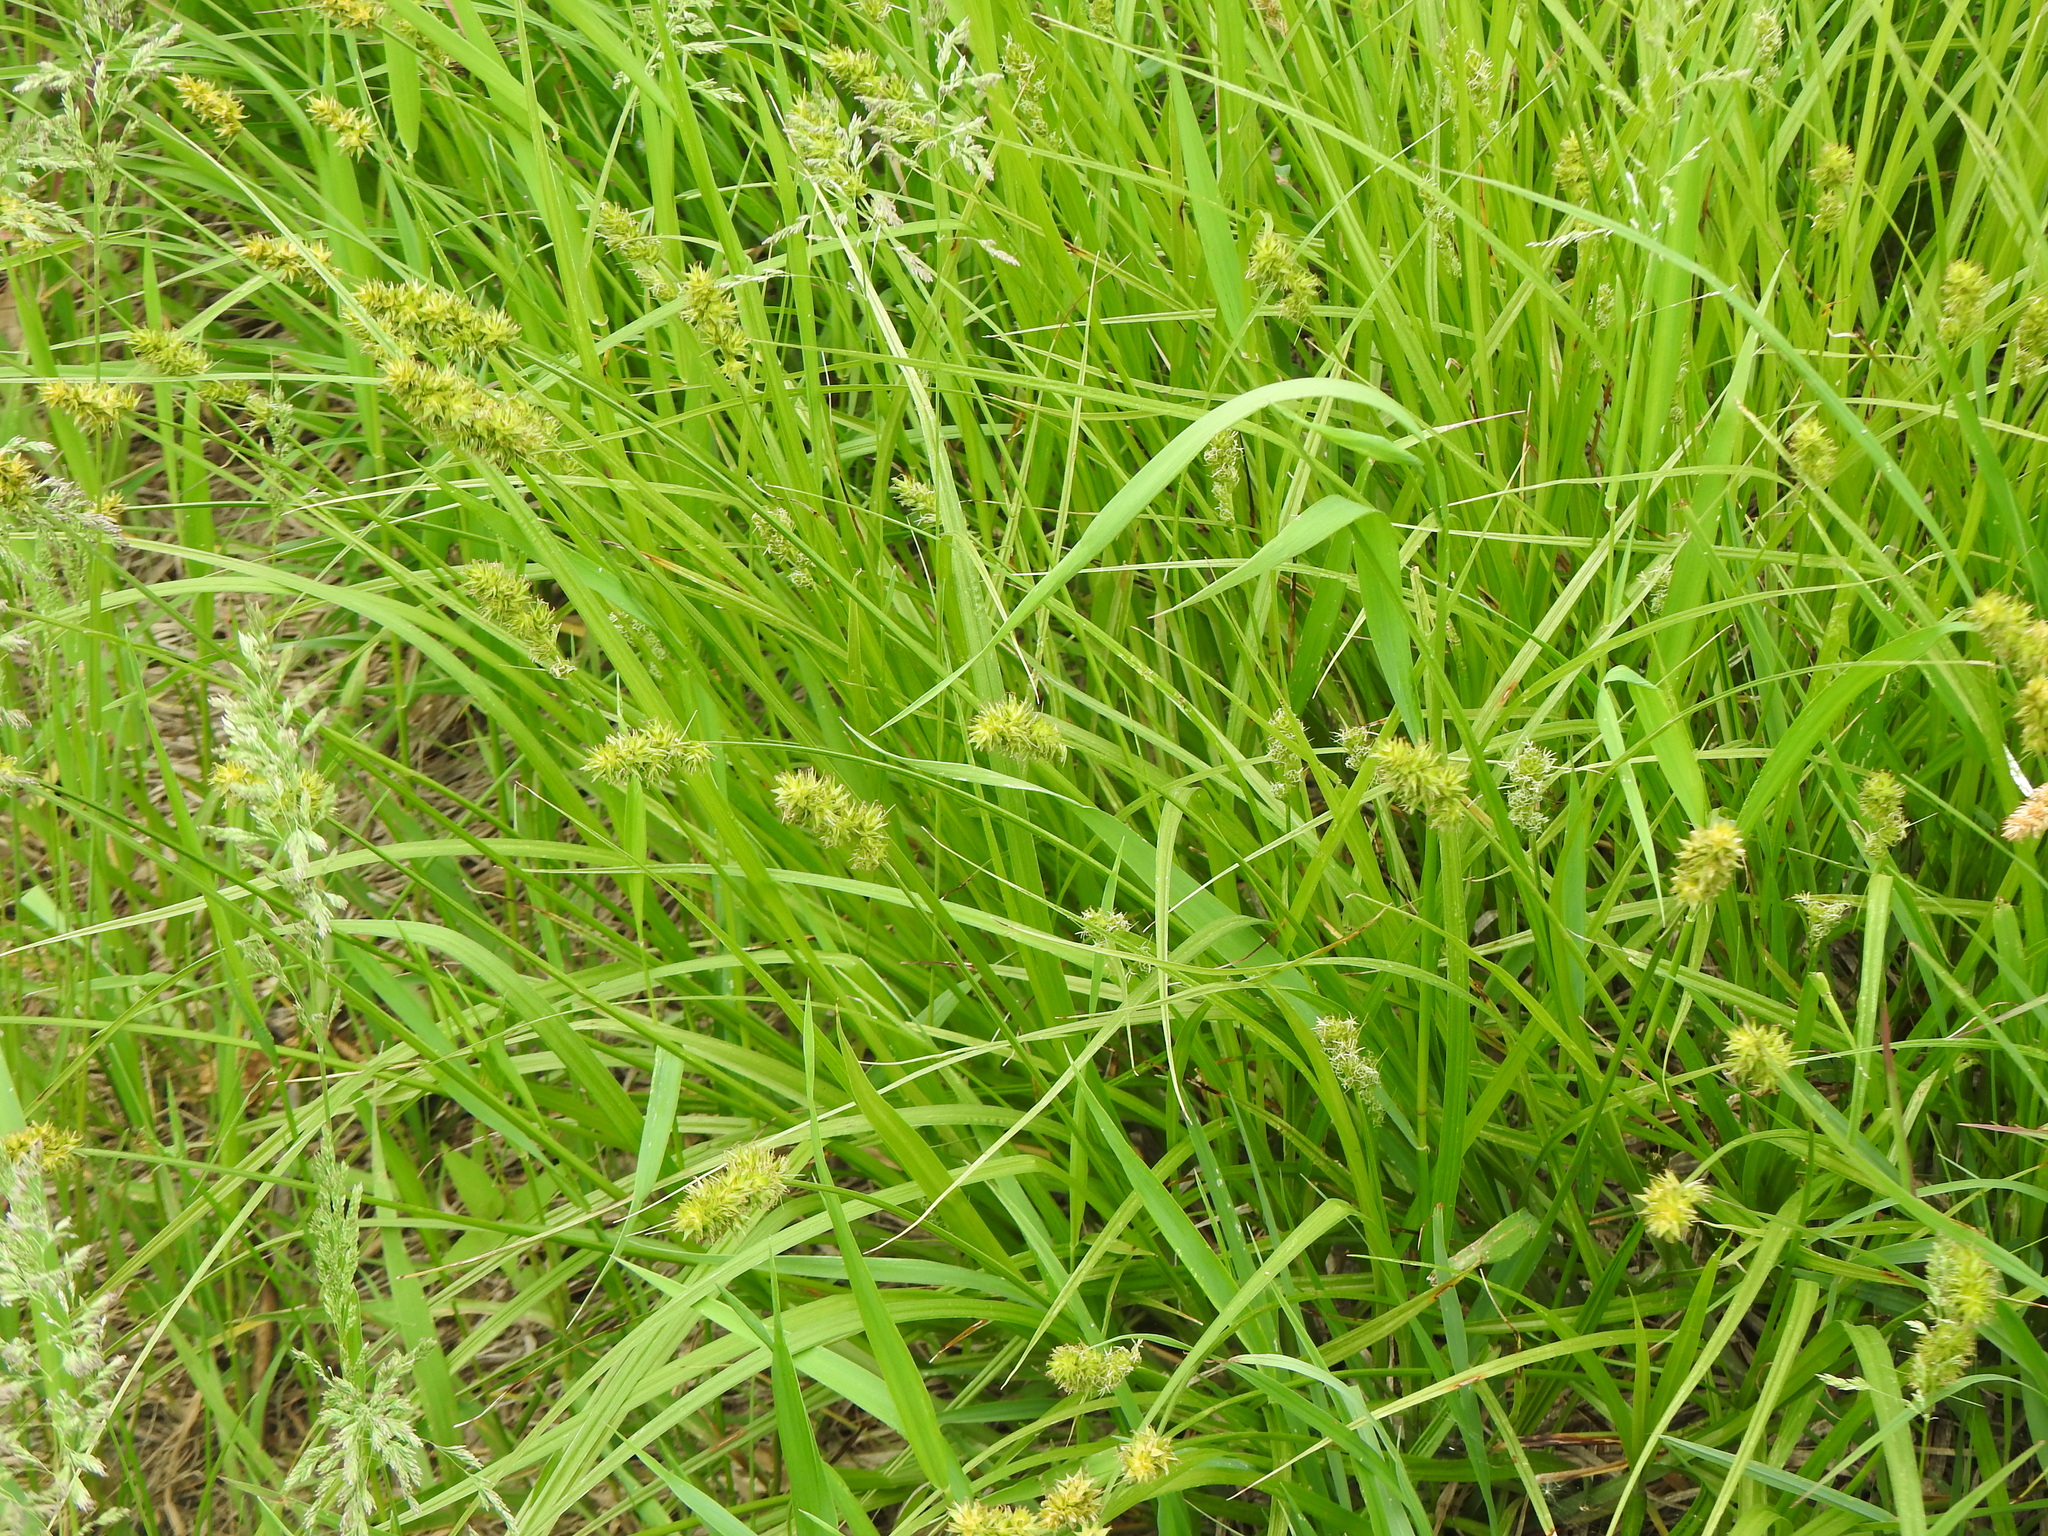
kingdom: Plantae
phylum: Tracheophyta
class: Liliopsida
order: Poales
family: Cyperaceae
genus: Cyperus
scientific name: Cyperus esculentus
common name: Yellow nutsedge
